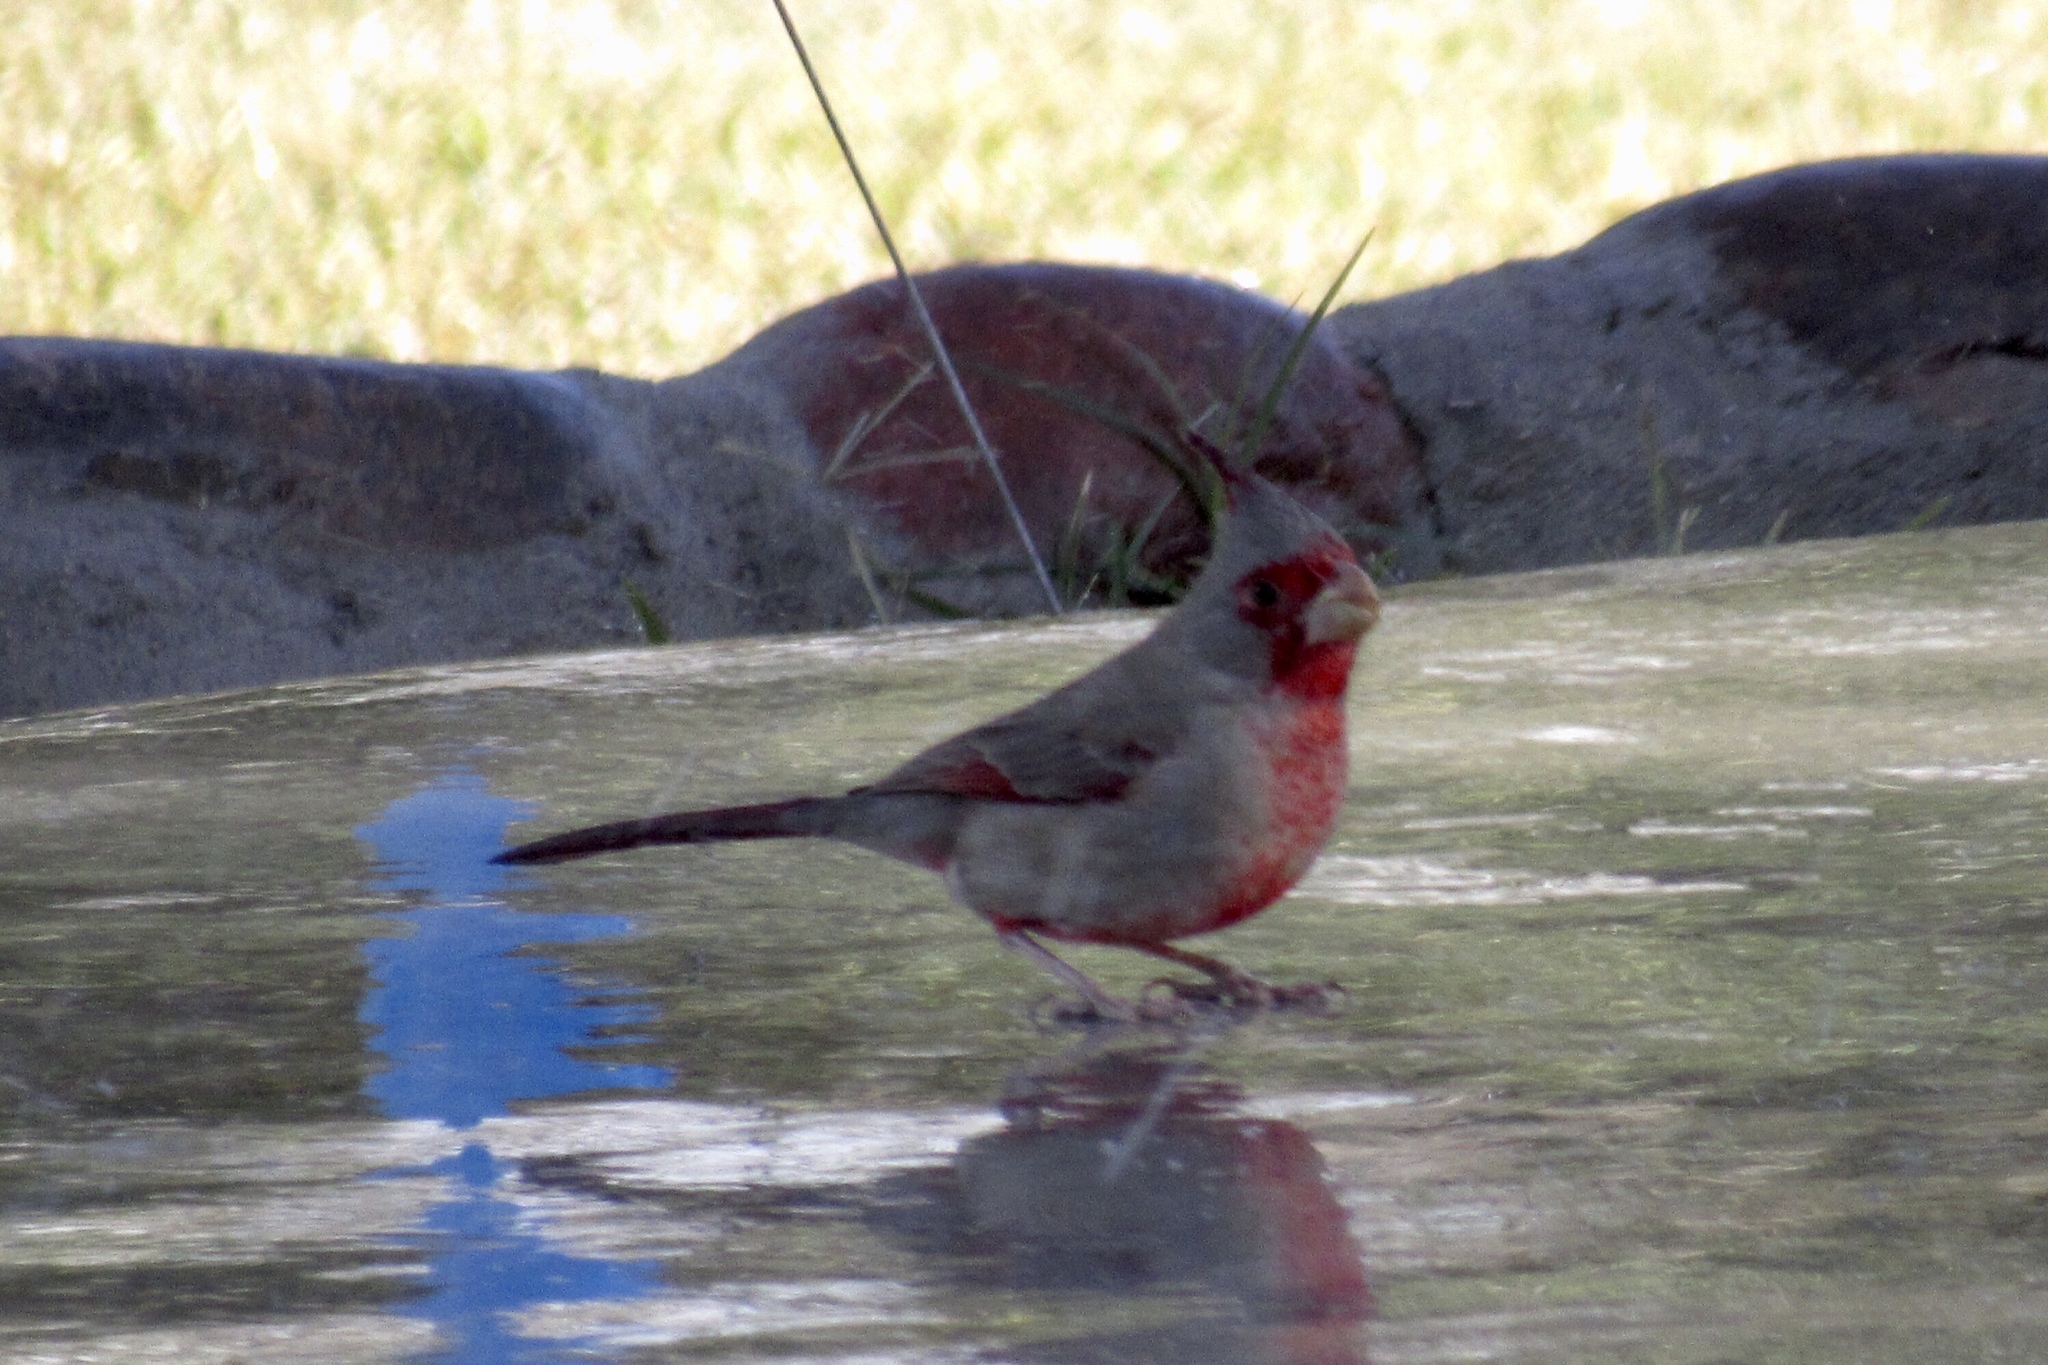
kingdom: Animalia
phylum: Chordata
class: Aves
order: Passeriformes
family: Cardinalidae
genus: Cardinalis
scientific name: Cardinalis sinuatus
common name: Pyrrhuloxia
